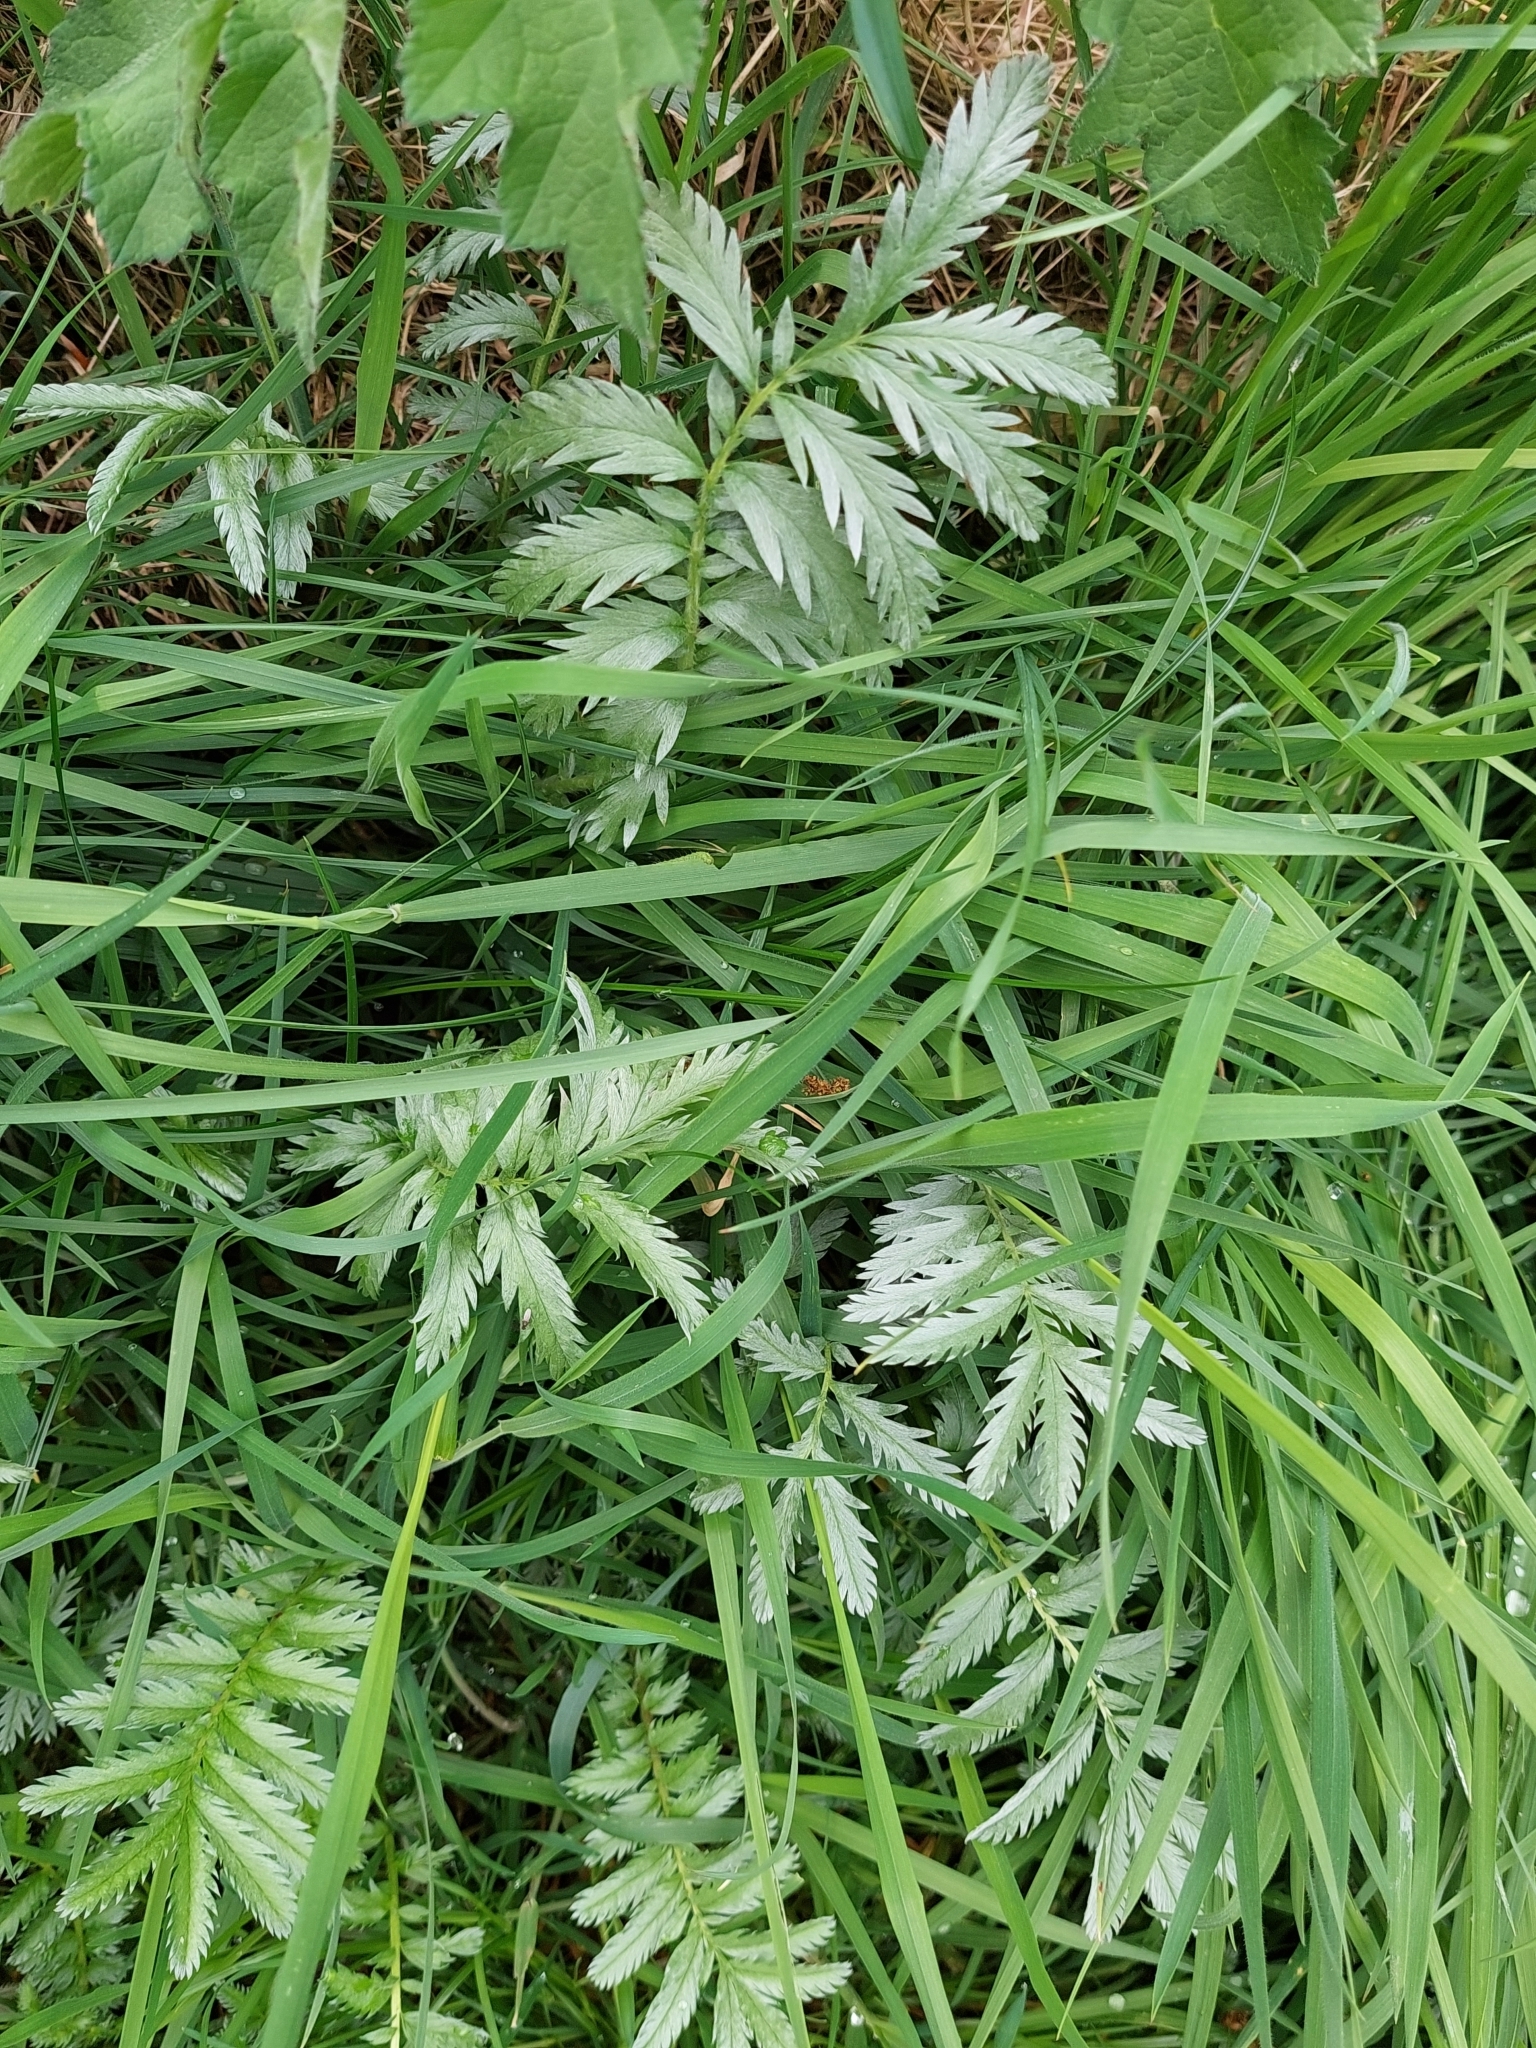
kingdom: Plantae
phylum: Tracheophyta
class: Magnoliopsida
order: Rosales
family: Rosaceae
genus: Argentina
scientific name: Argentina anserina
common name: Common silverweed
